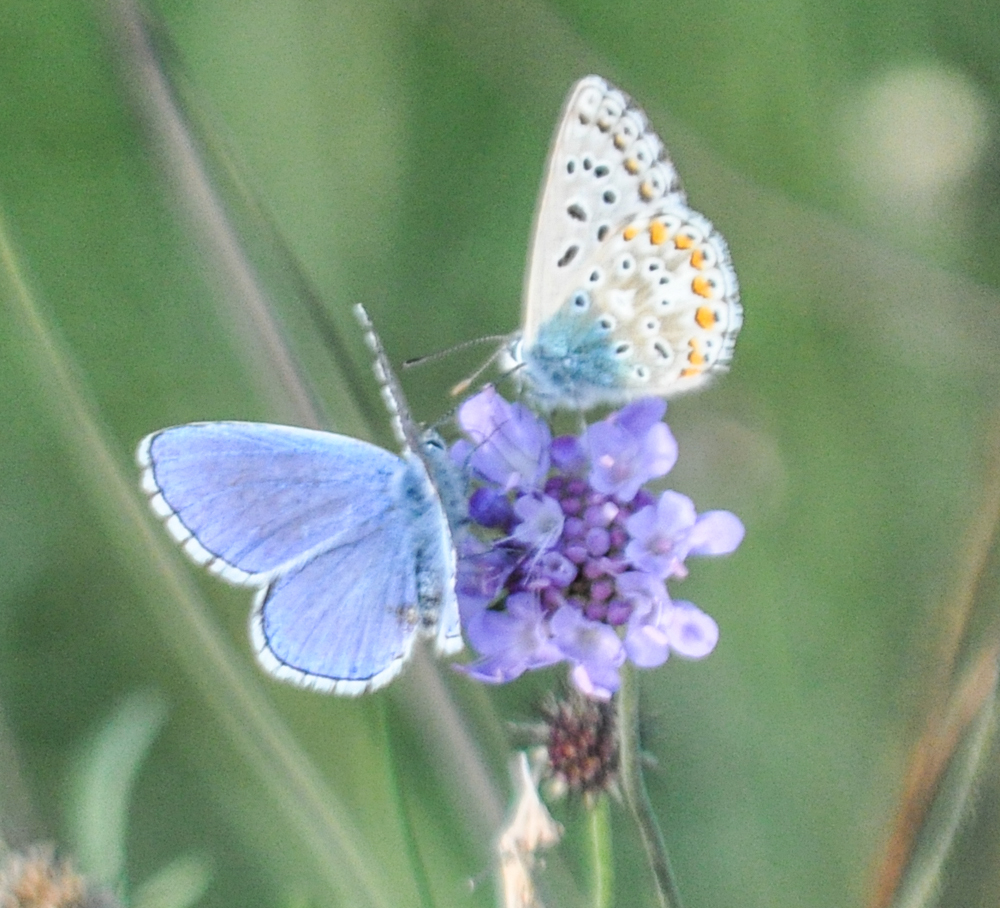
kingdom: Animalia
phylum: Arthropoda
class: Insecta
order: Lepidoptera
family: Lycaenidae
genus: Lysandra
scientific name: Lysandra bellargus
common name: Adonis blue
